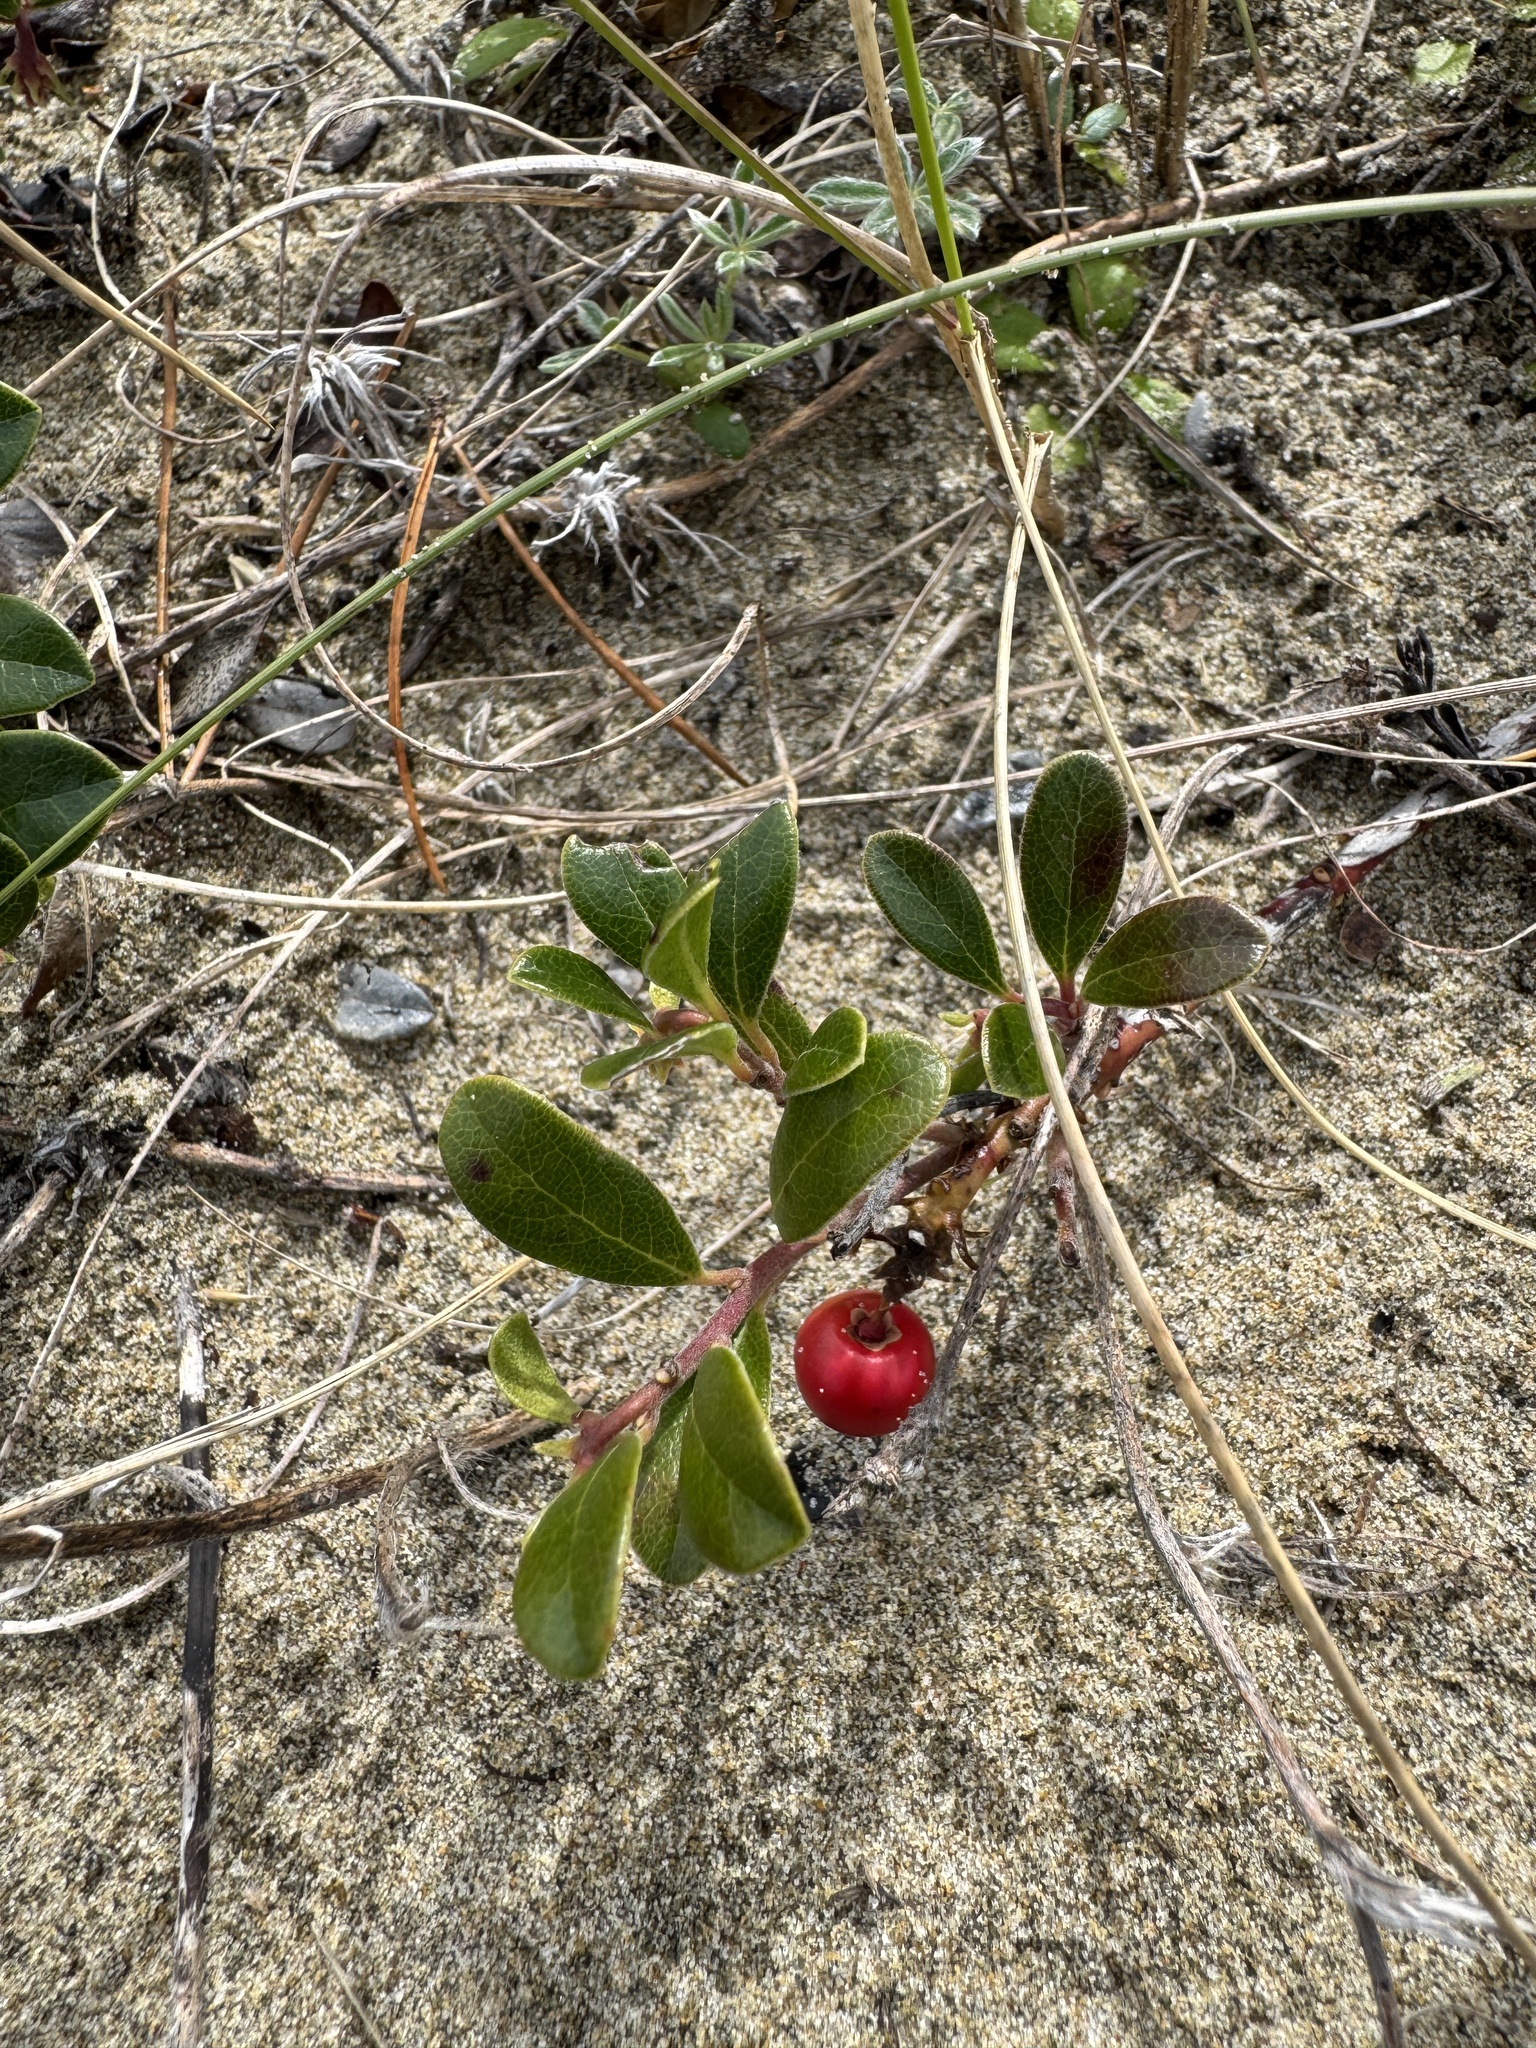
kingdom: Plantae
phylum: Tracheophyta
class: Magnoliopsida
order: Ericales
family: Ericaceae
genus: Arctostaphylos
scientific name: Arctostaphylos uva-ursi
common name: Bearberry
